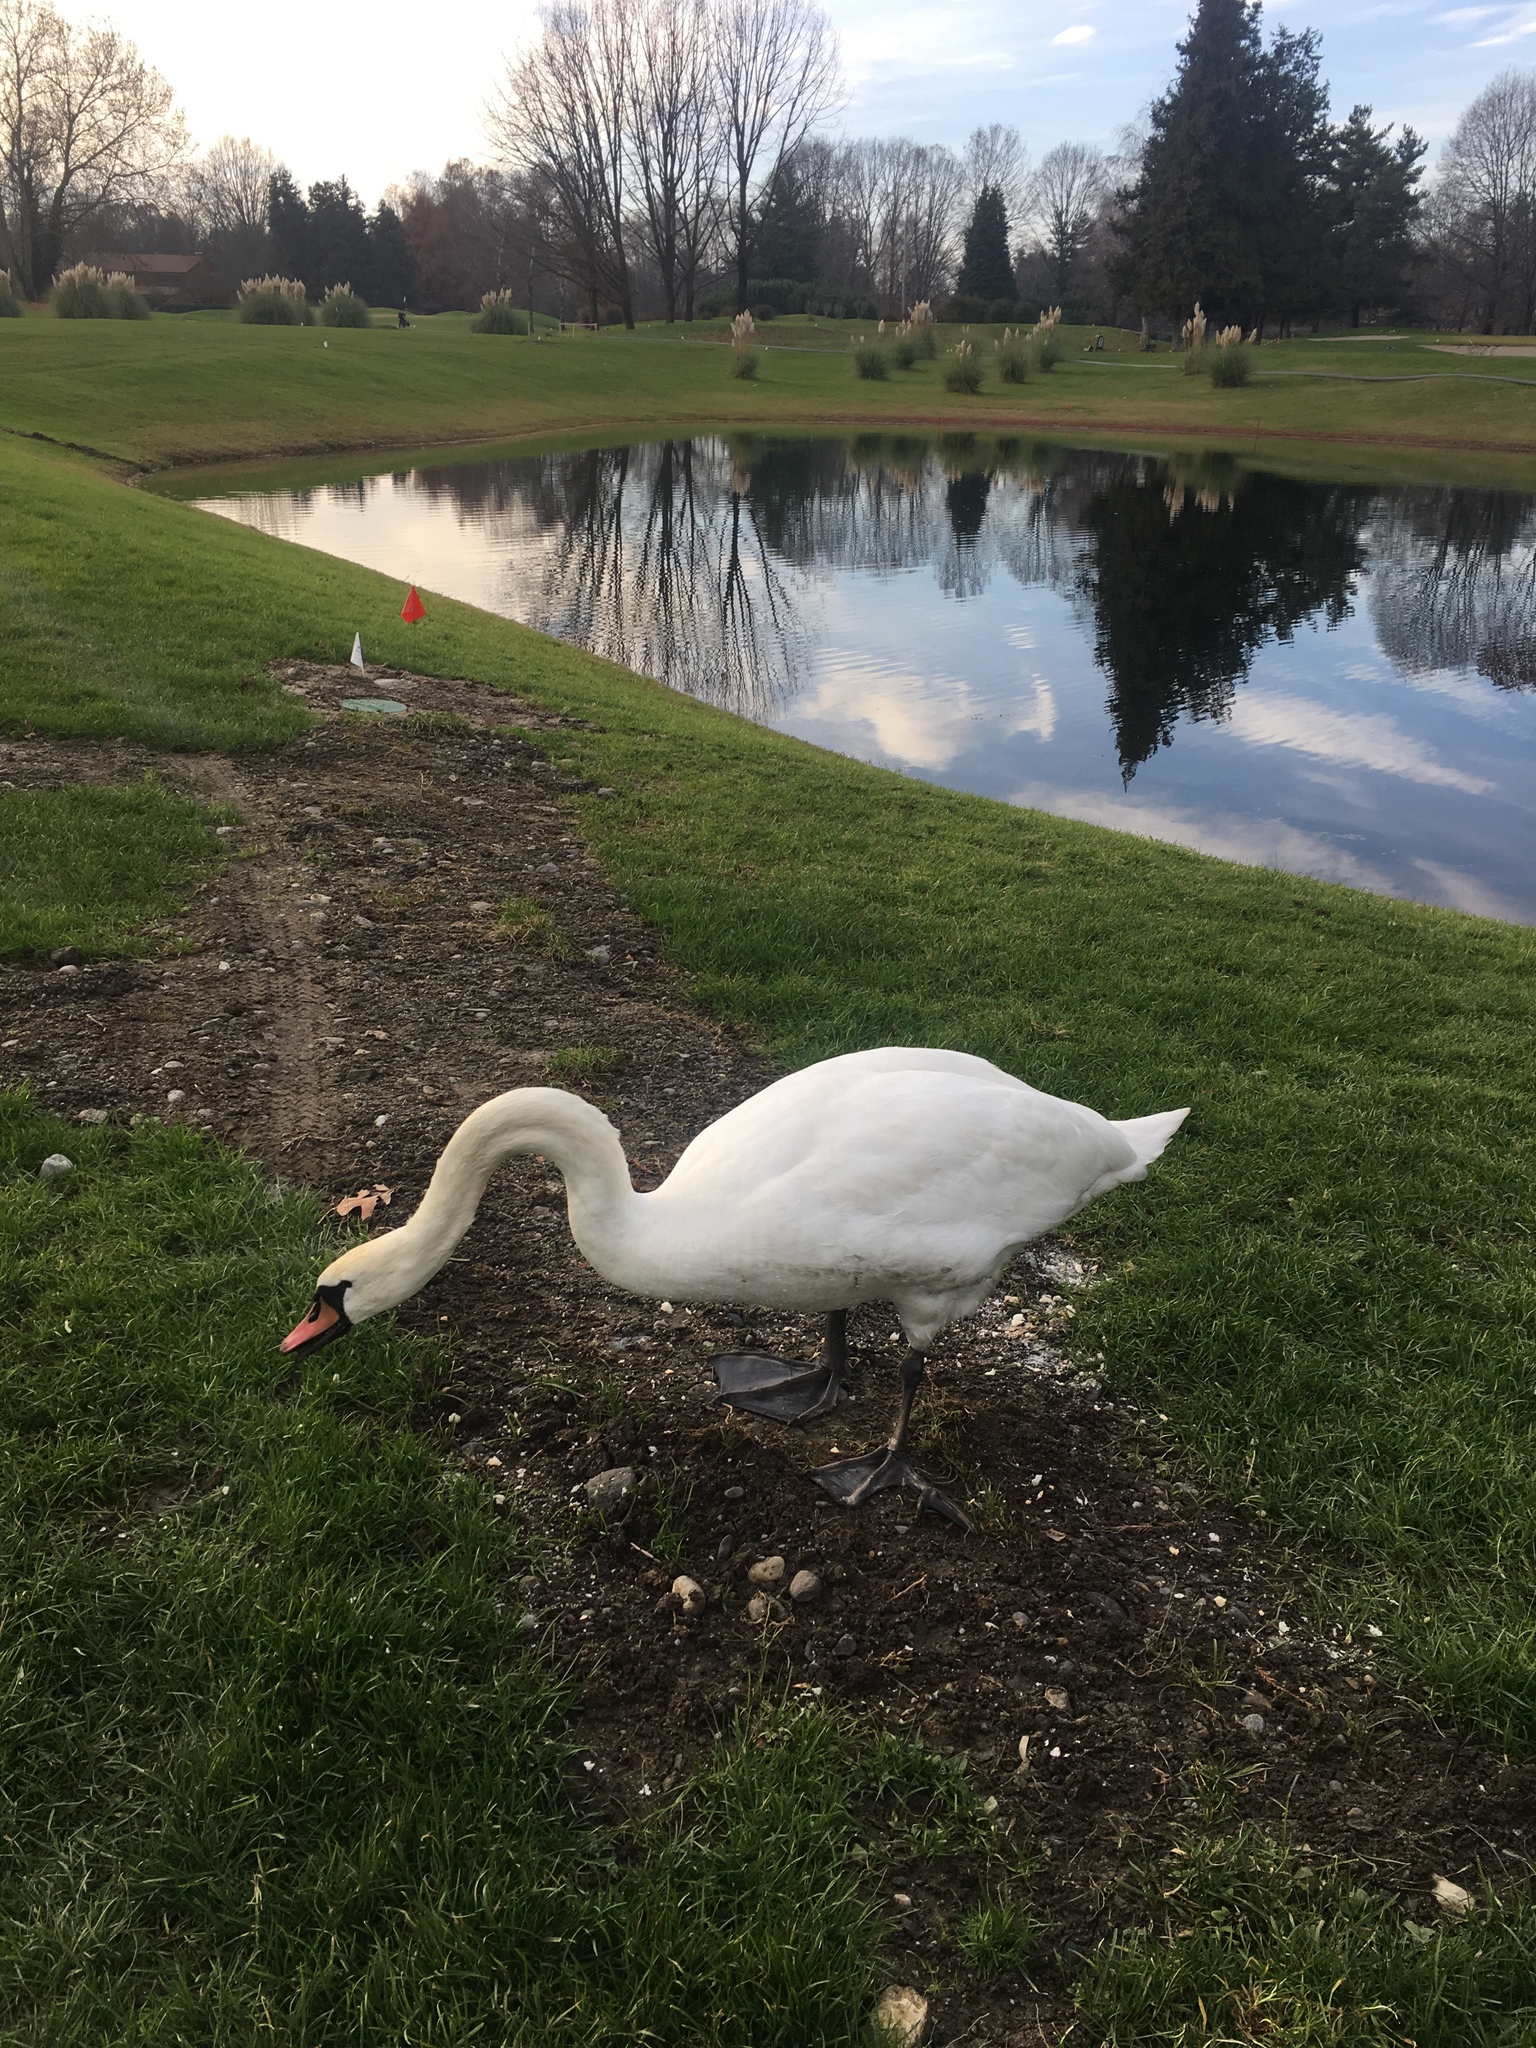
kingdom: Animalia
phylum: Chordata
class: Aves
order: Anseriformes
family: Anatidae
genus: Cygnus
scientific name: Cygnus olor
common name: Mute swan
